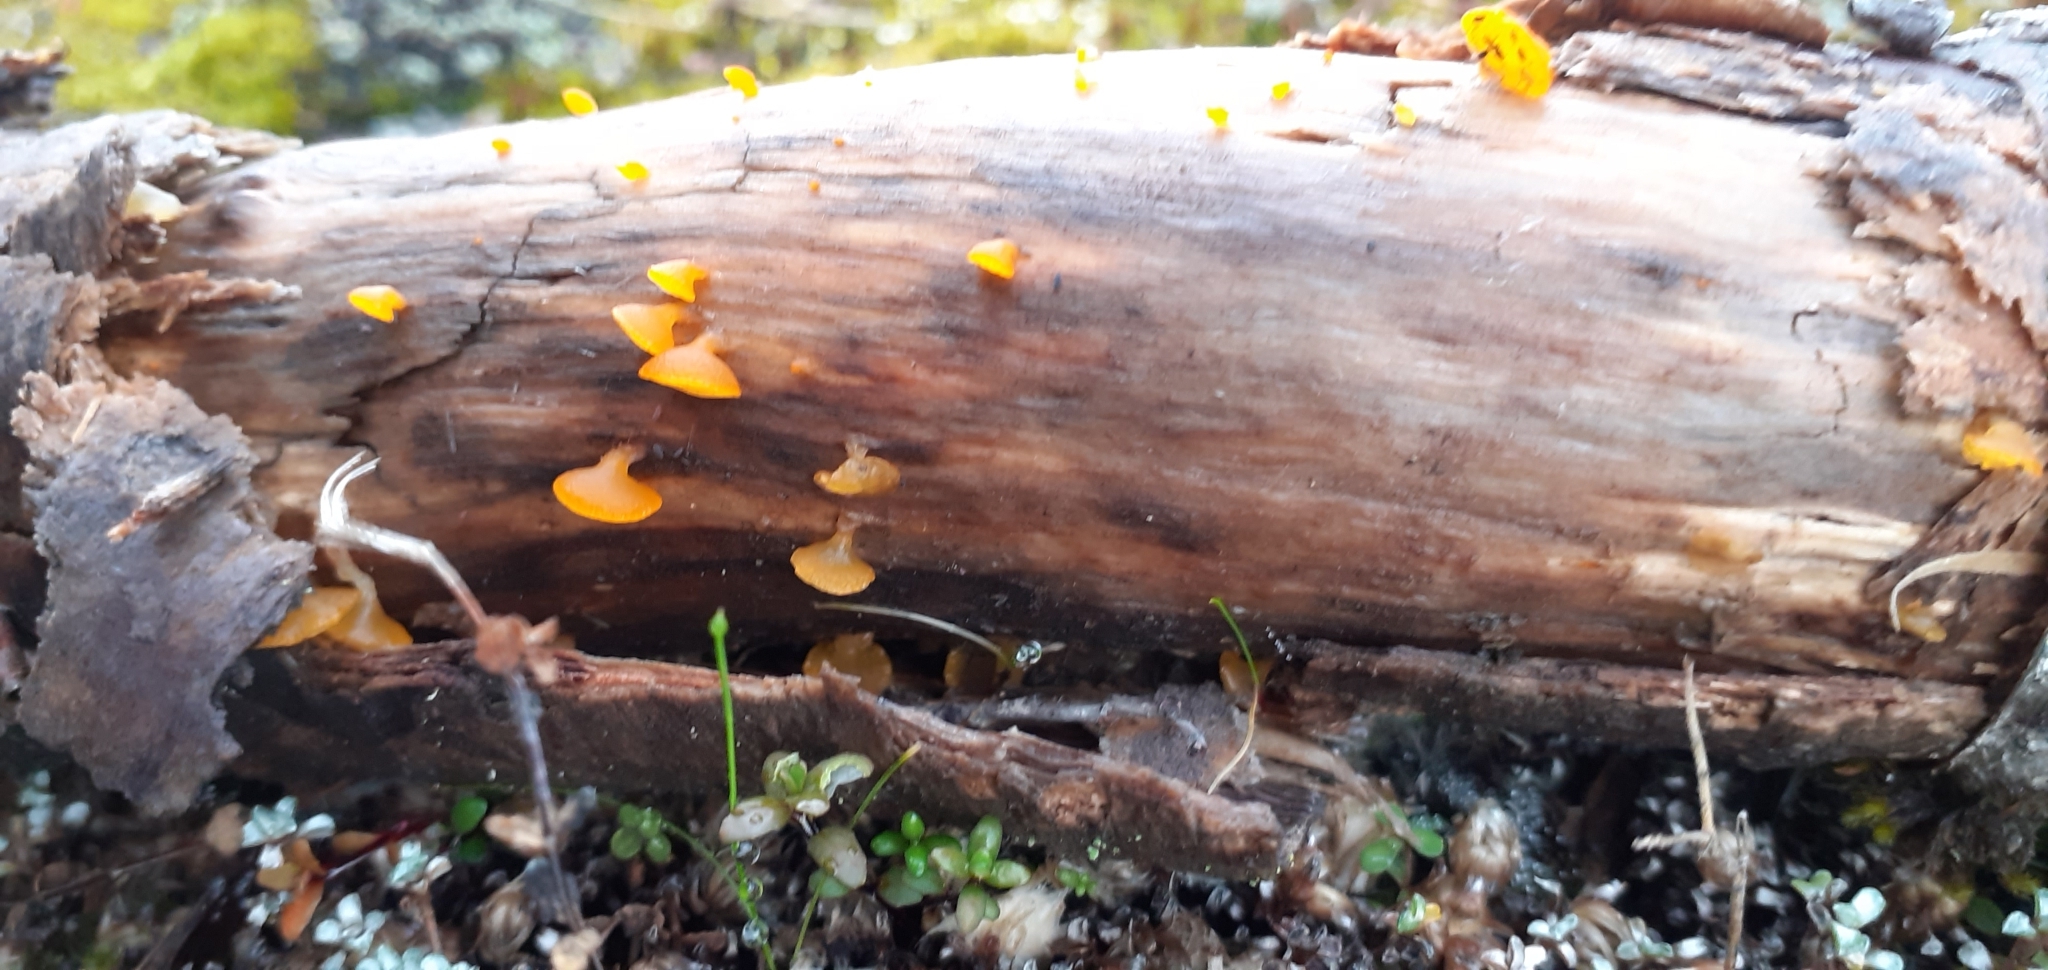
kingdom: Fungi
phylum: Basidiomycota
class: Dacrymycetes
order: Dacrymycetales
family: Dacrymycetaceae
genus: Heterotextus
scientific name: Heterotextus miltinus
